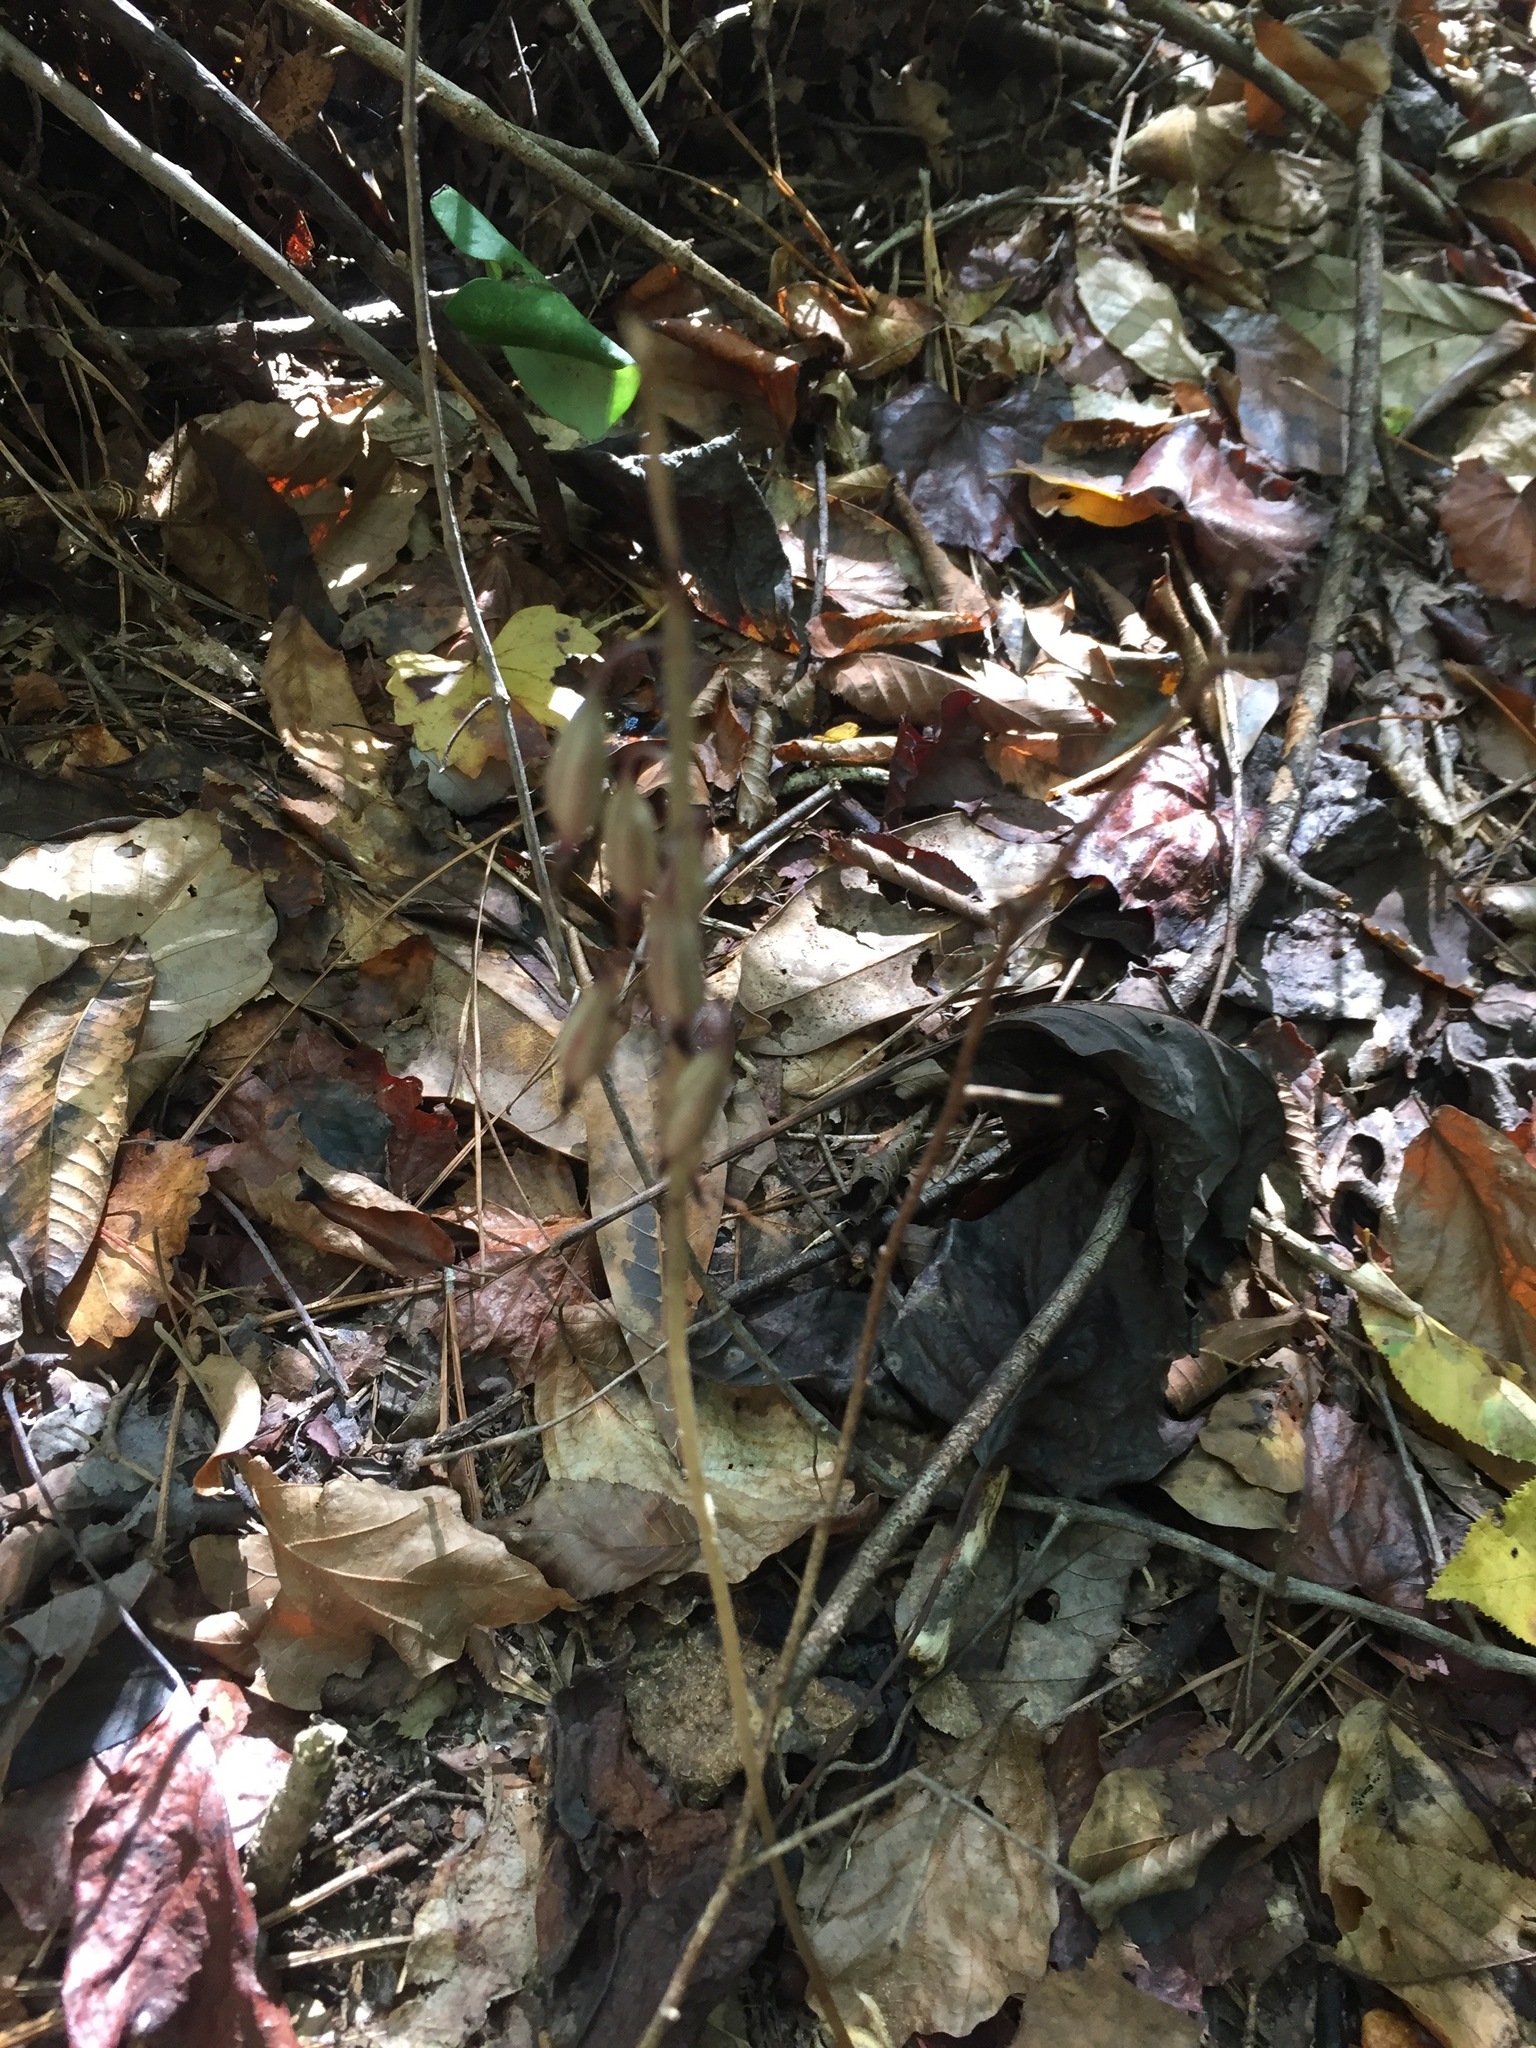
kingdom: Plantae
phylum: Tracheophyta
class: Liliopsida
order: Asparagales
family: Orchidaceae
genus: Tipularia
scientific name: Tipularia discolor
